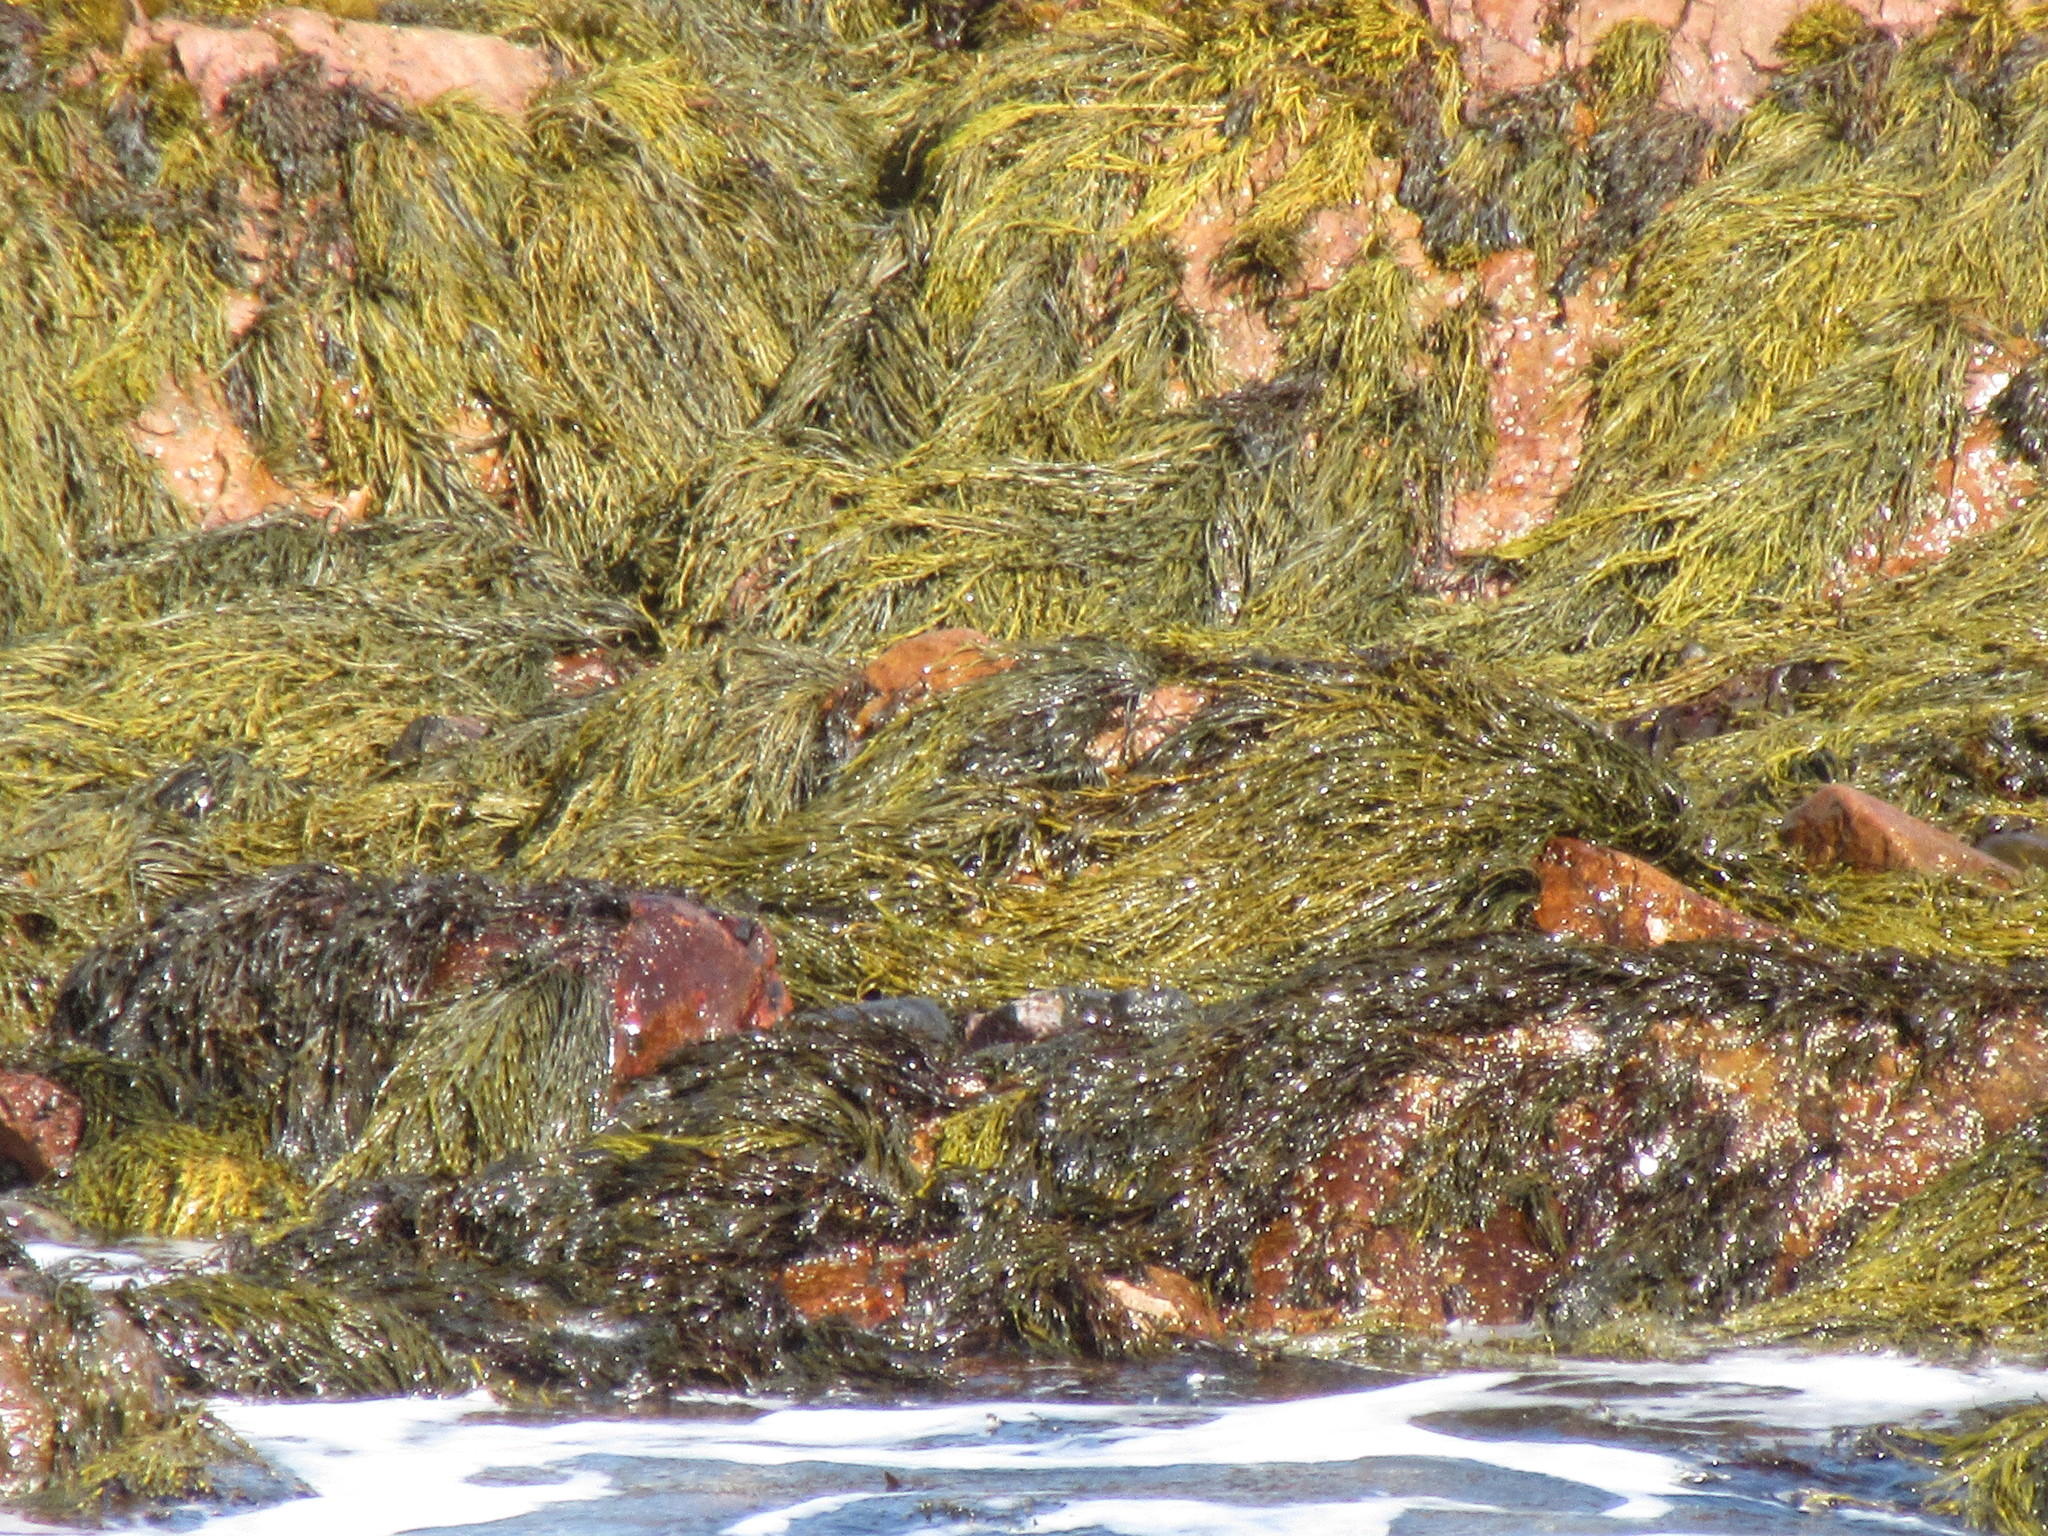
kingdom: Chromista
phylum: Ochrophyta
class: Phaeophyceae
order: Fucales
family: Fucaceae
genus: Ascophyllum
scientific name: Ascophyllum nodosum
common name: Knotted wrack
